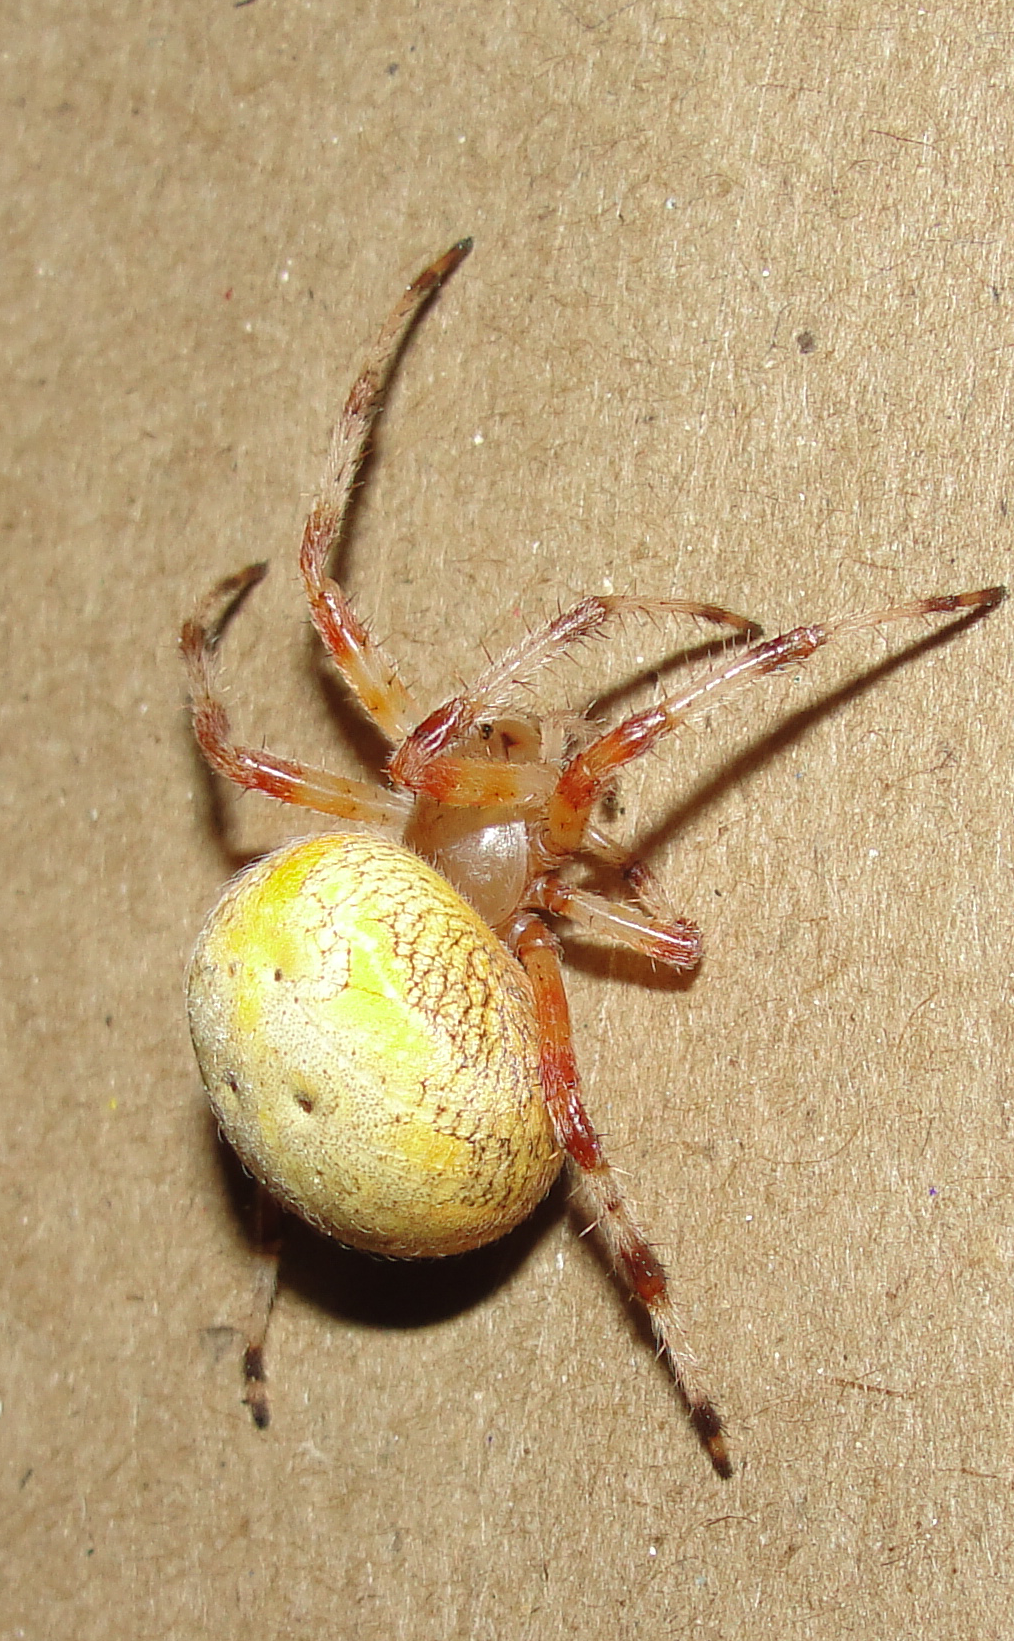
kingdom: Animalia
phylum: Arthropoda
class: Arachnida
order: Araneae
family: Araneidae
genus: Araneus
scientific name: Araneus marmoreus
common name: Marbled orbweaver
